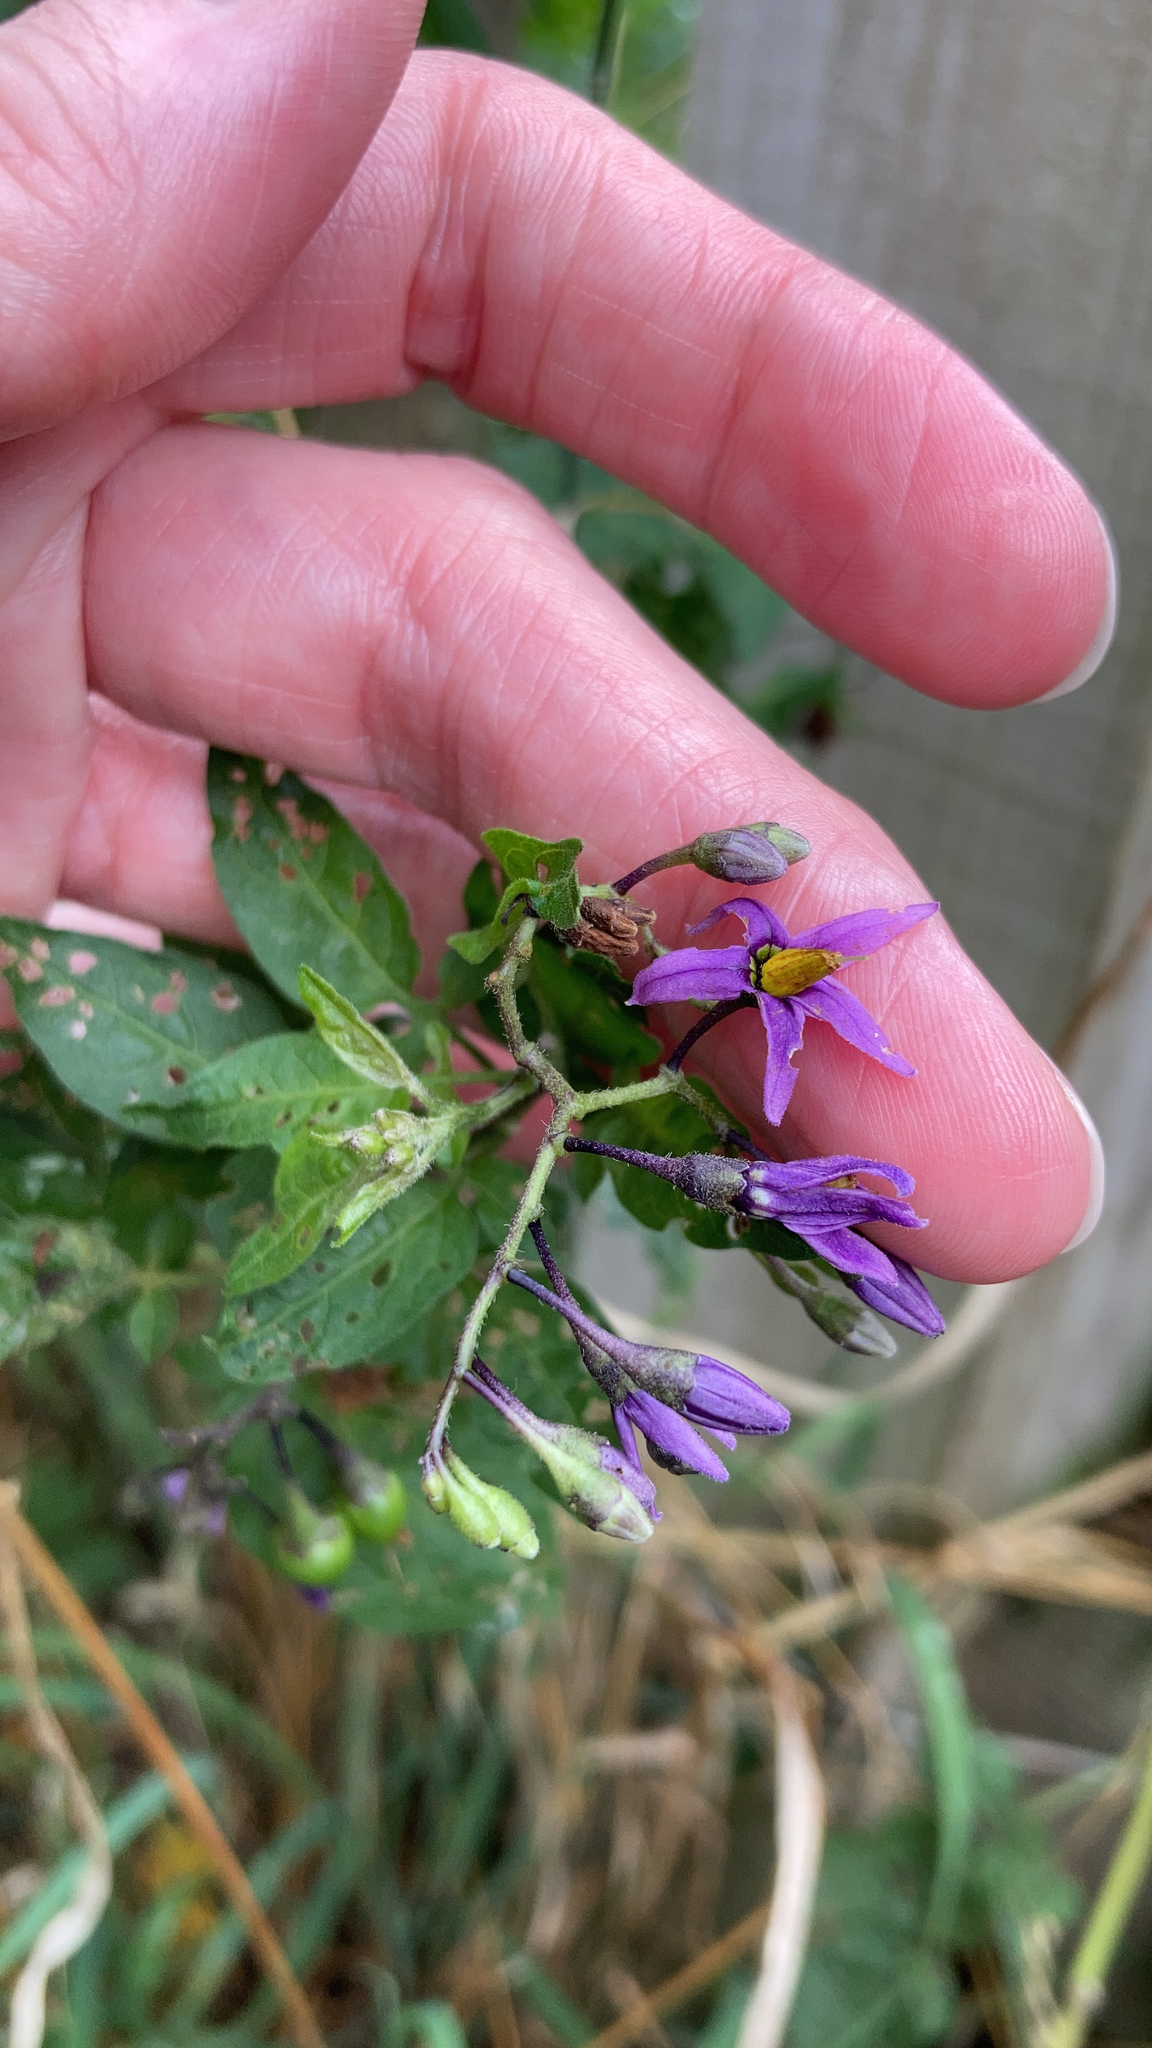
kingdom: Plantae
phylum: Tracheophyta
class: Magnoliopsida
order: Solanales
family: Solanaceae
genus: Solanum
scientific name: Solanum dulcamara
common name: Climbing nightshade
